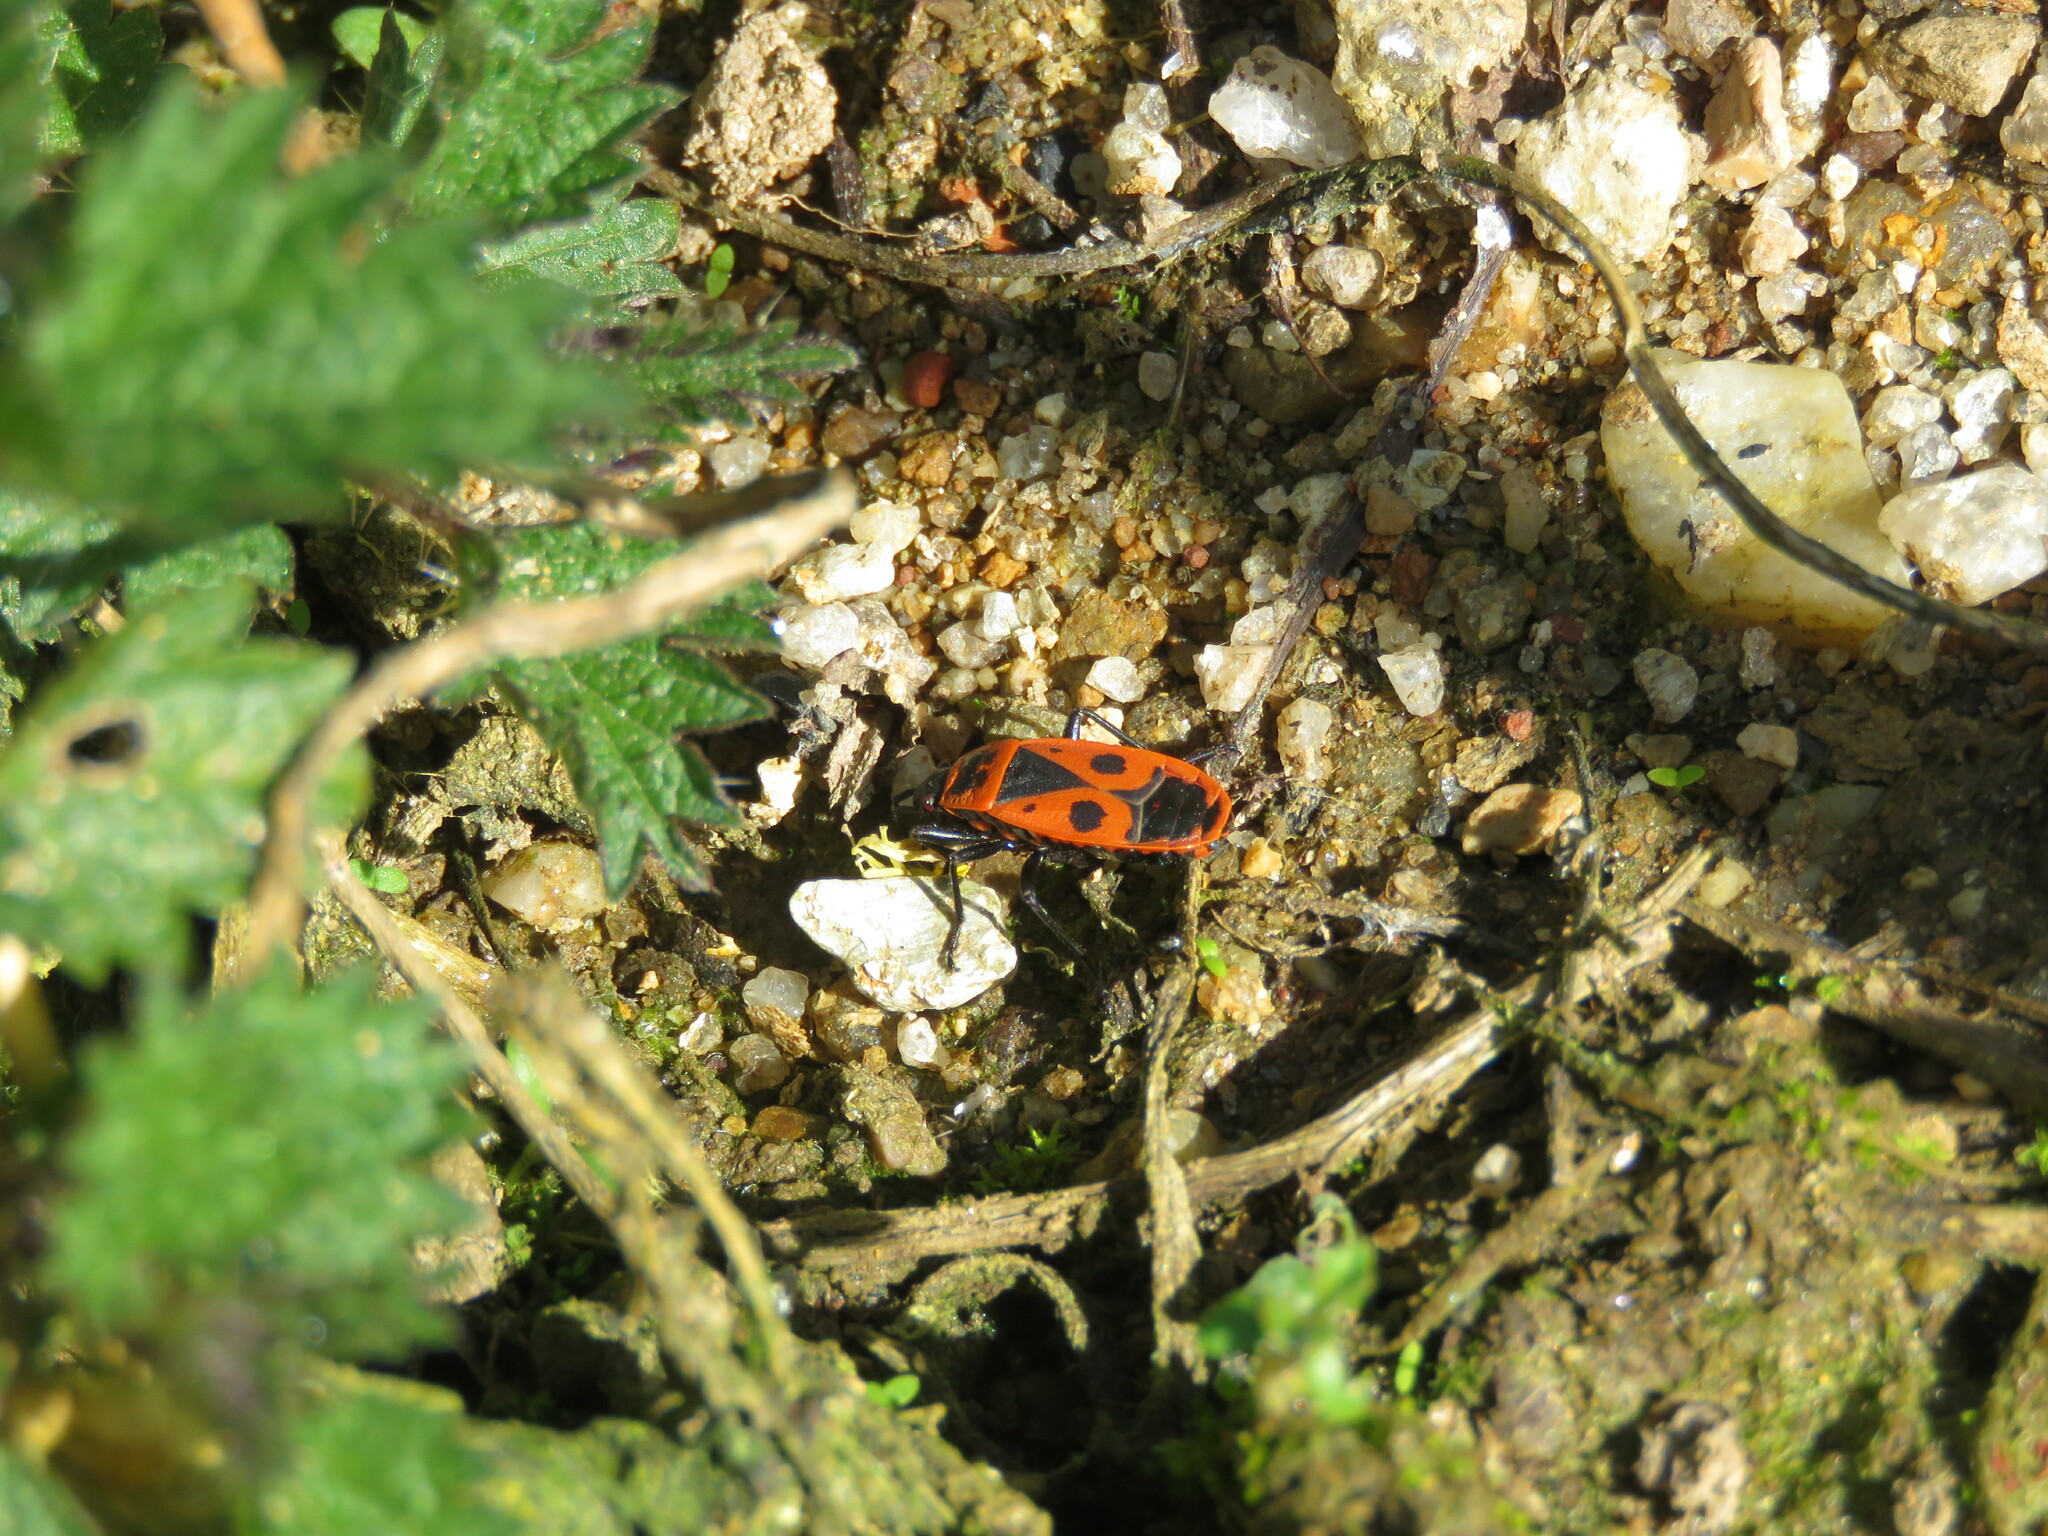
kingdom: Animalia
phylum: Arthropoda
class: Insecta
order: Hemiptera
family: Pyrrhocoridae
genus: Pyrrhocoris
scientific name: Pyrrhocoris apterus
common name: Firebug
